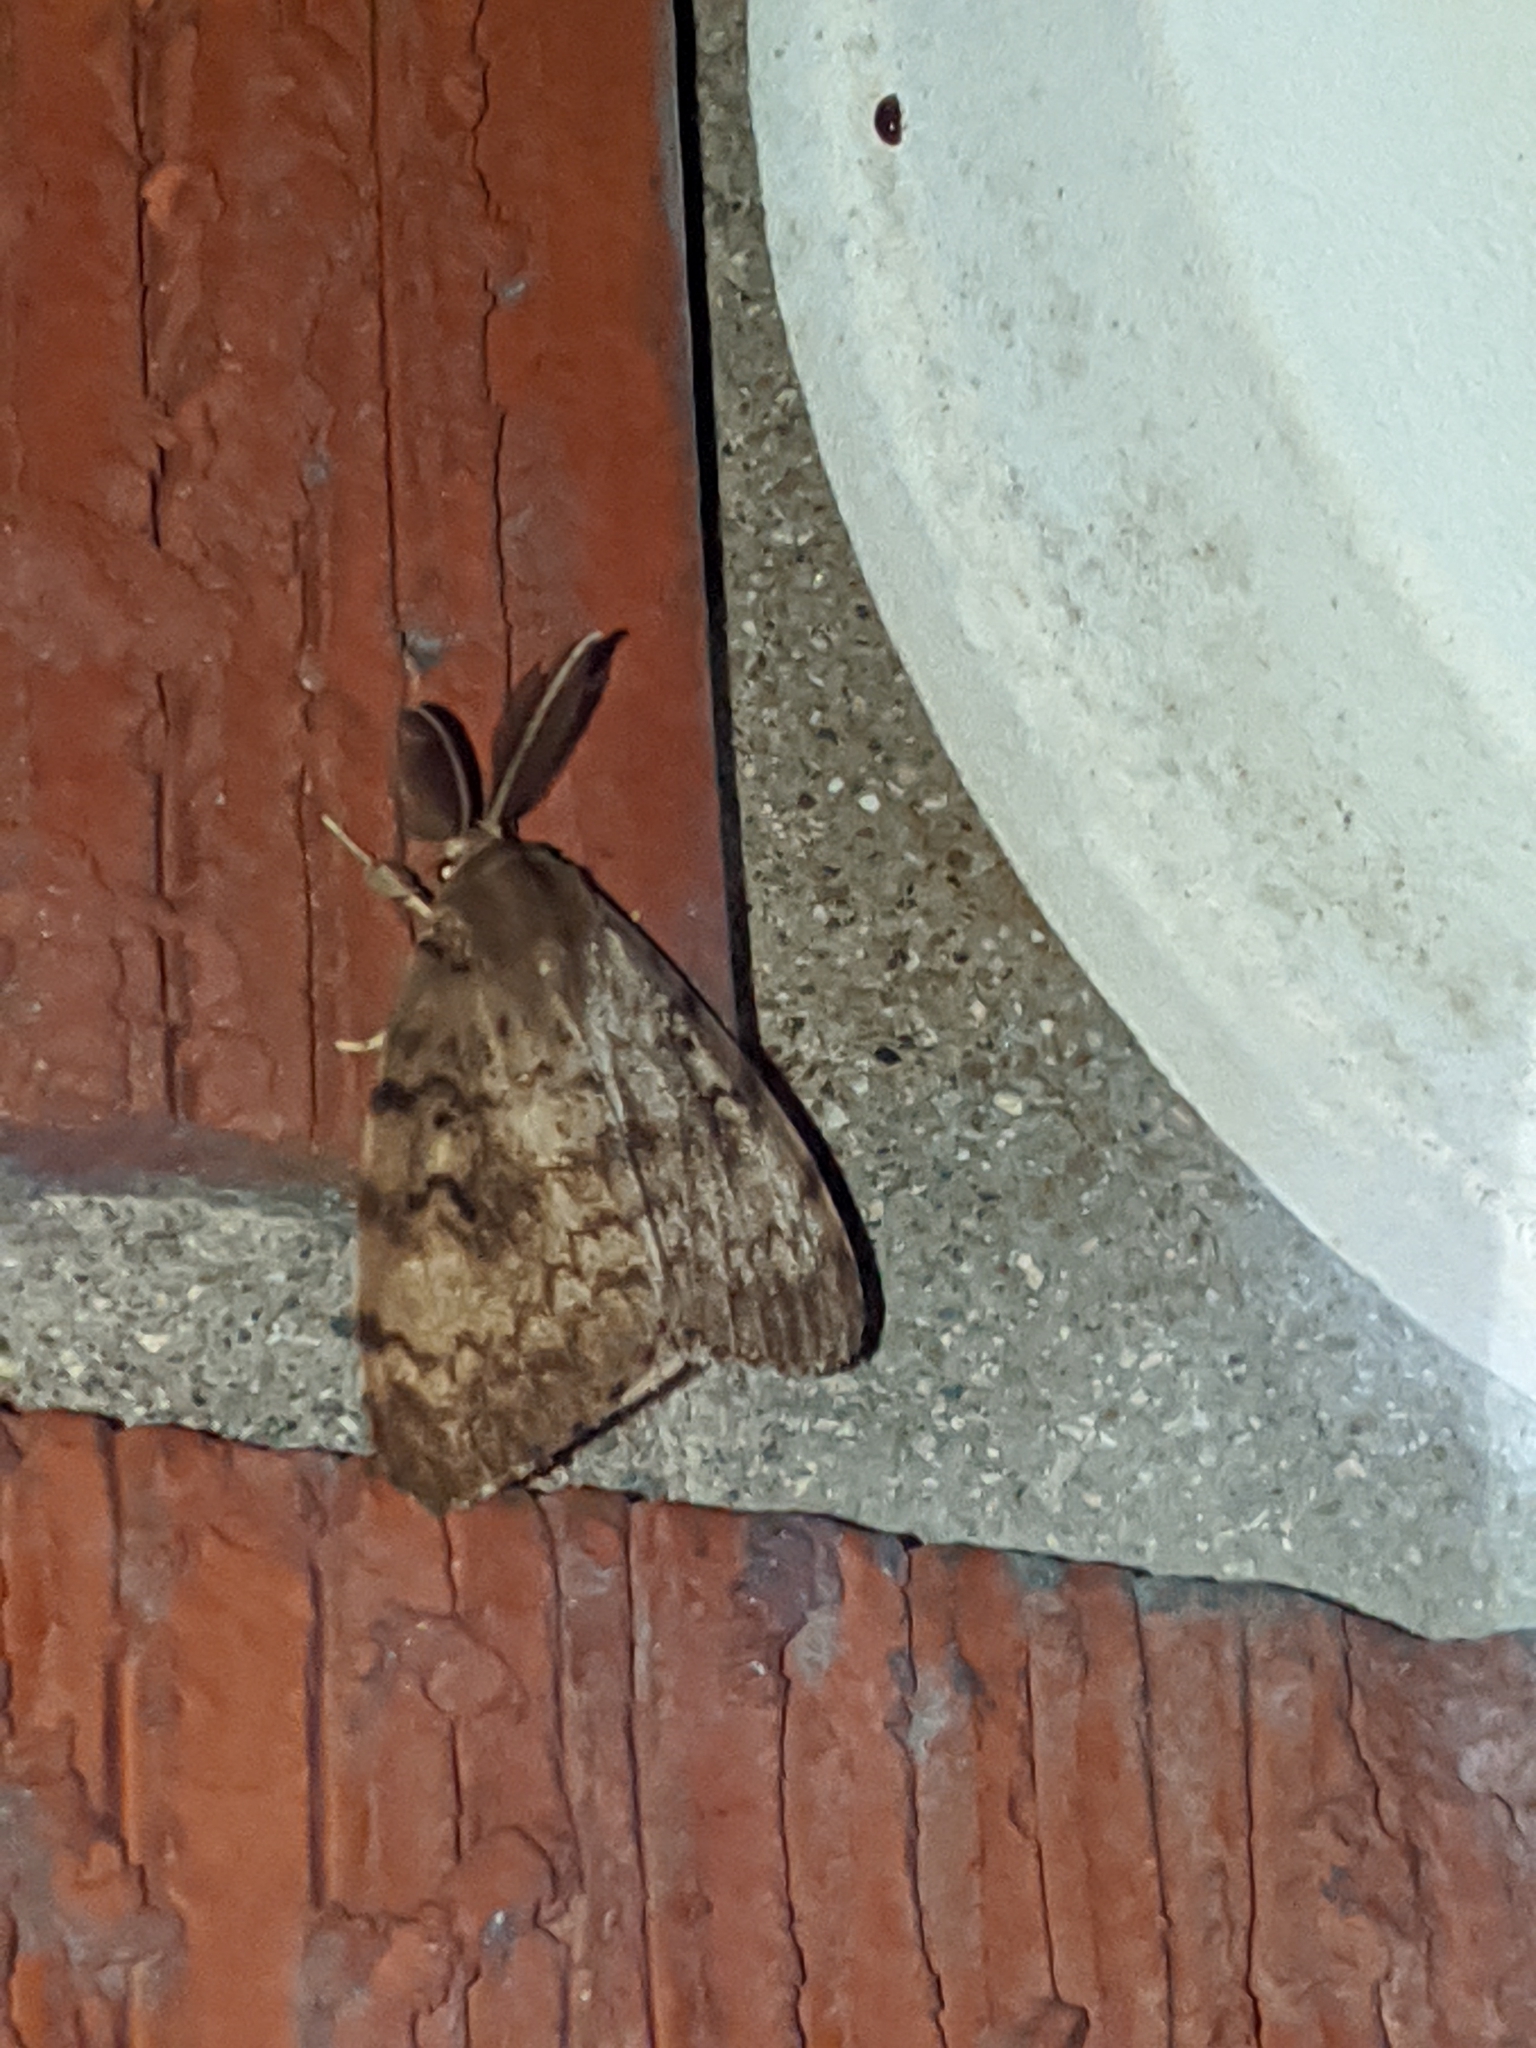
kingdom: Animalia
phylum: Arthropoda
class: Insecta
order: Lepidoptera
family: Erebidae
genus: Lymantria
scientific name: Lymantria dispar
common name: Gypsy moth
